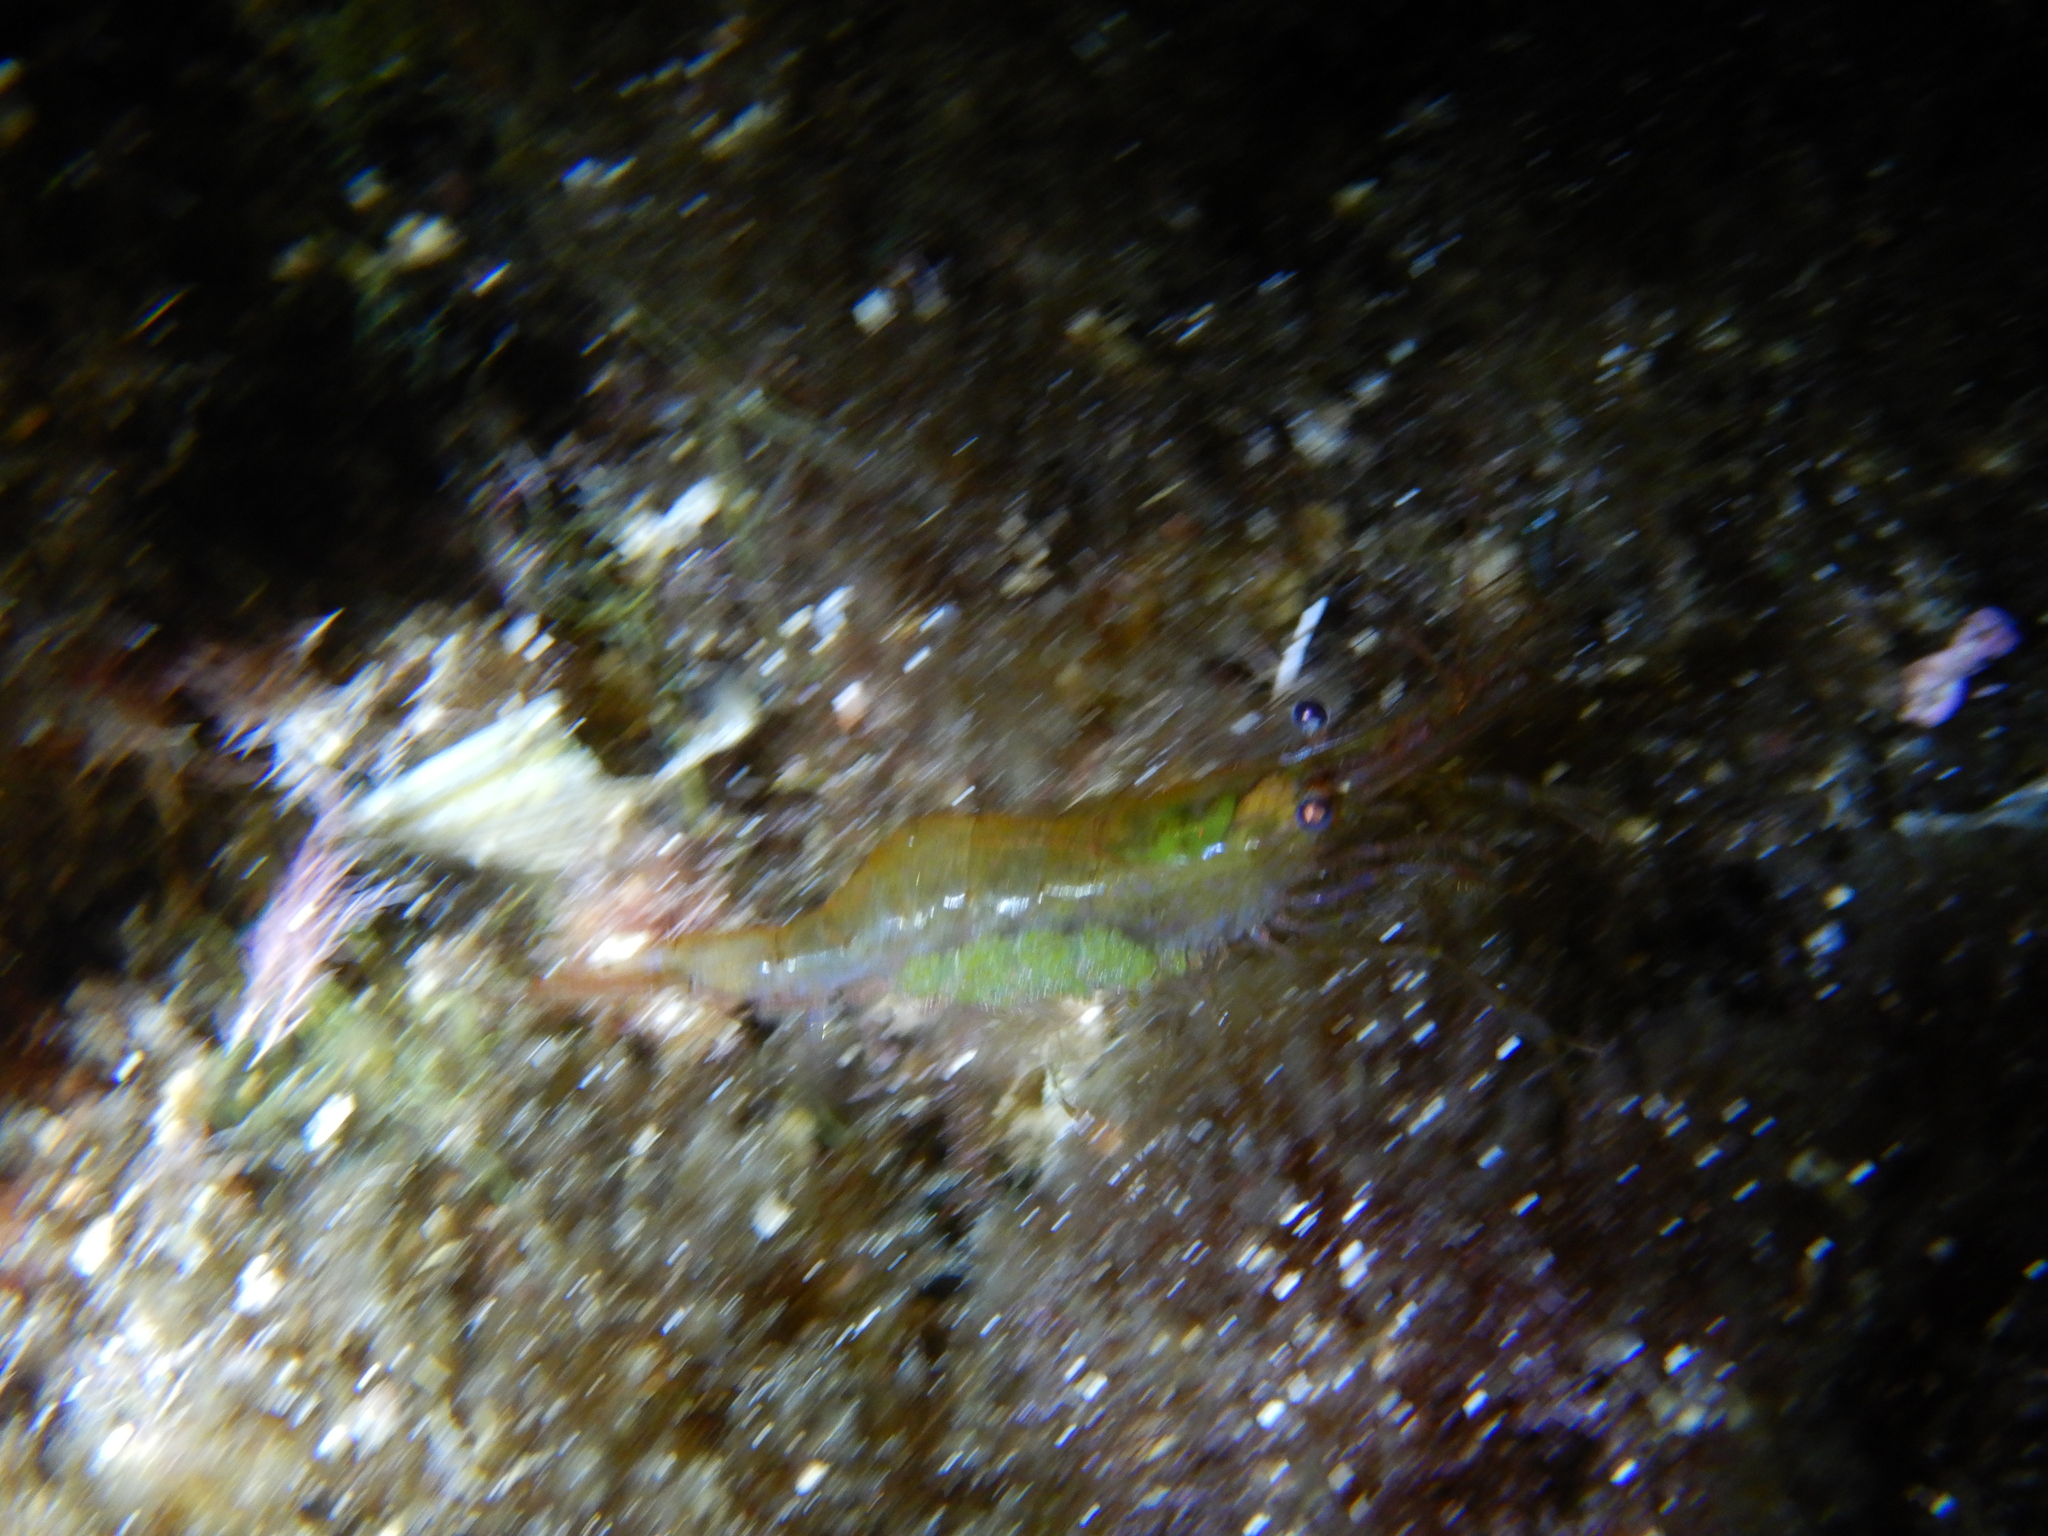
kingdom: Animalia
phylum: Arthropoda
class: Malacostraca
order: Decapoda
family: Palaemonidae
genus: Palaemon
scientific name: Palaemon xiphias
